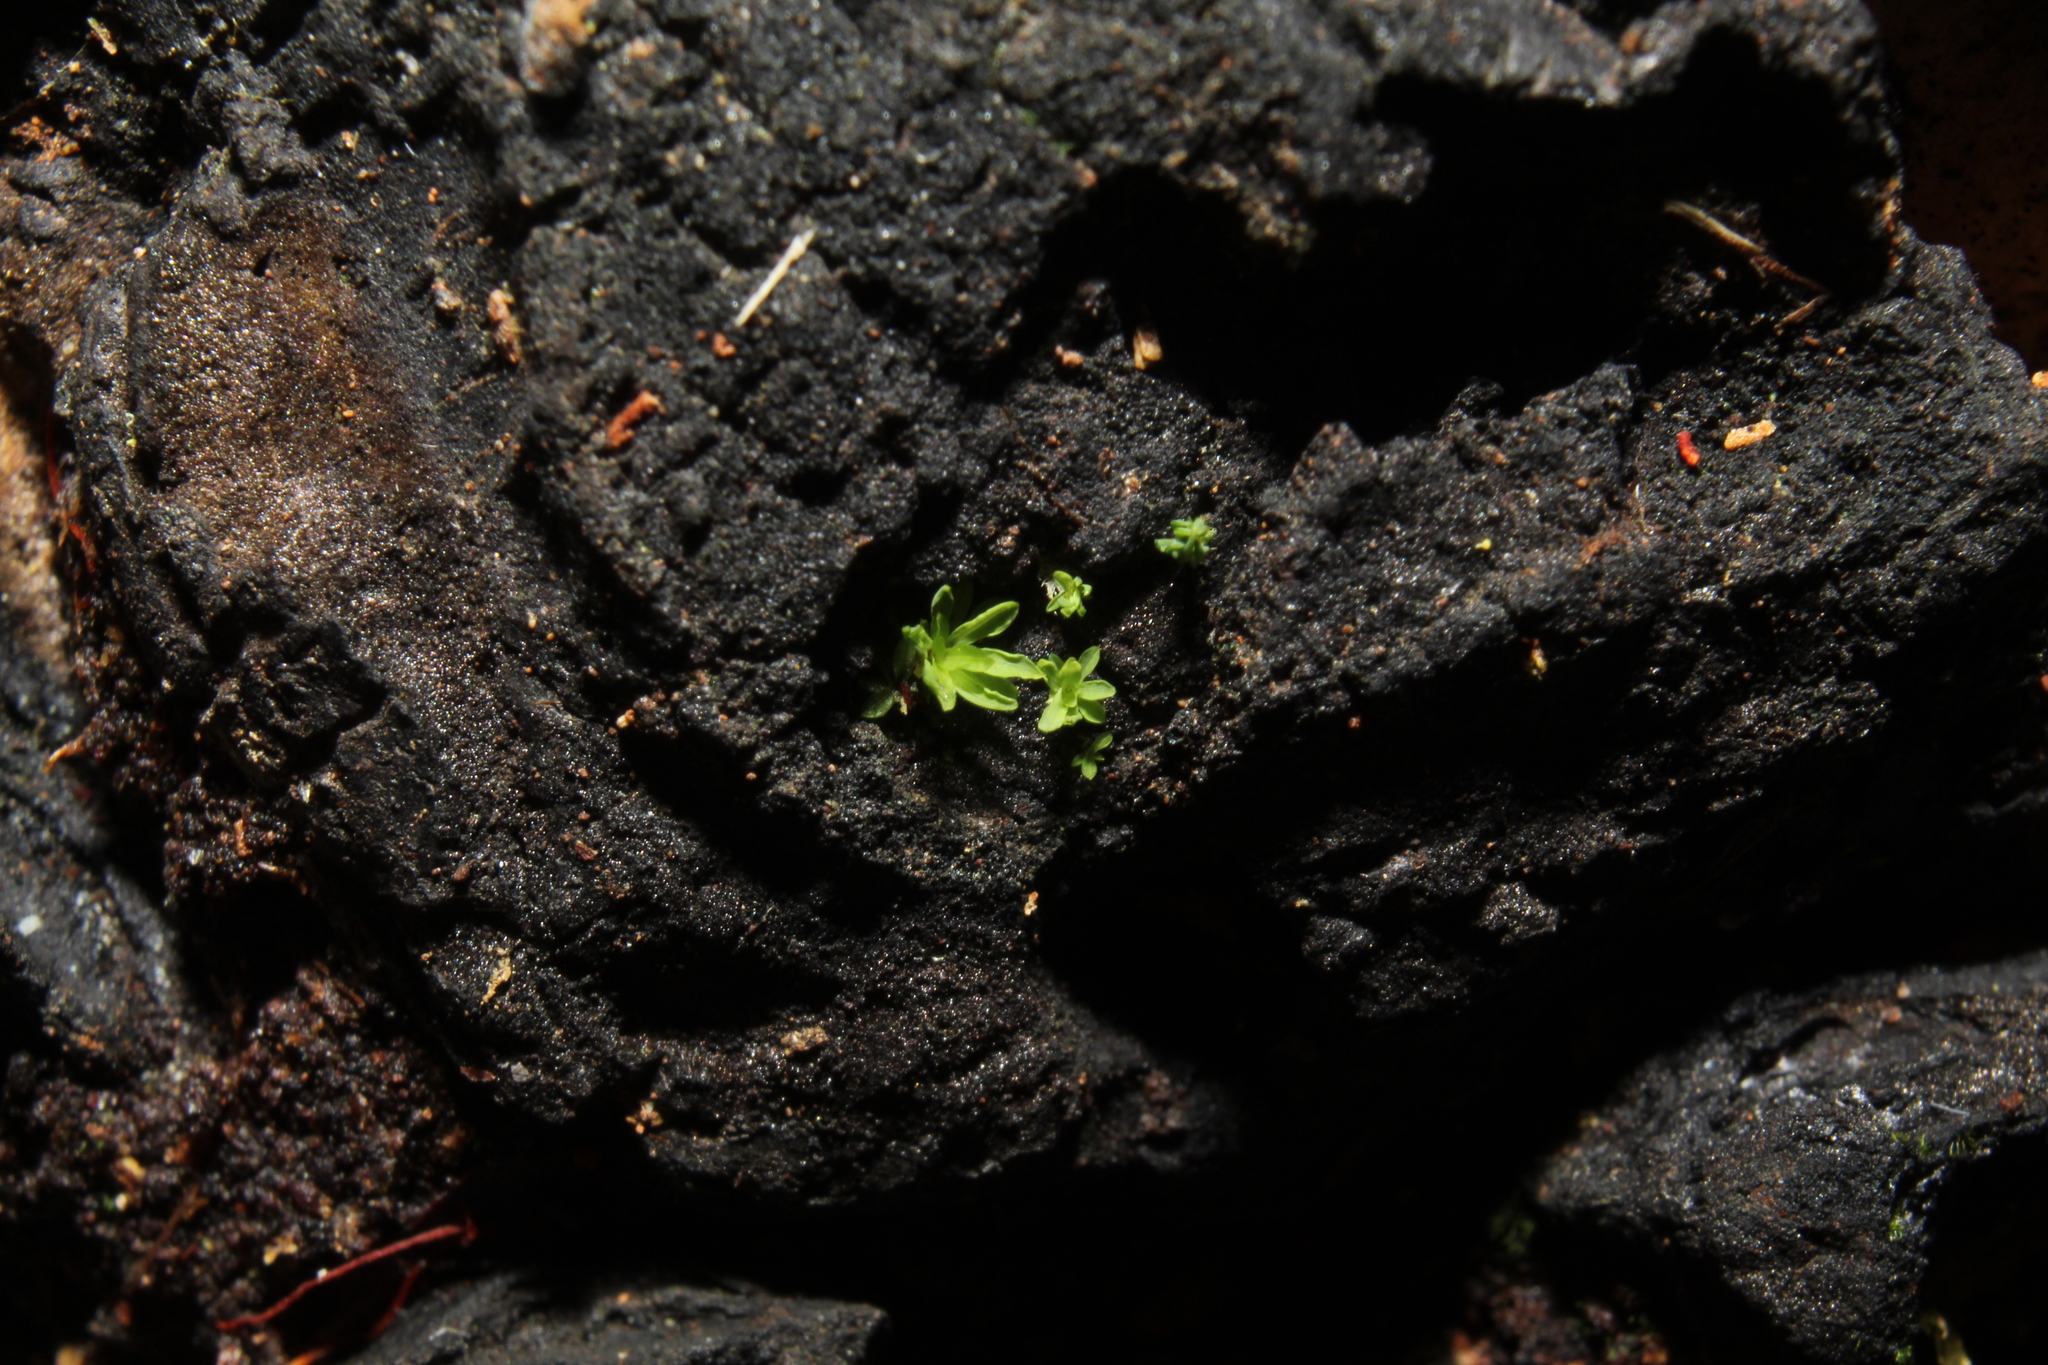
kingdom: Plantae
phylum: Bryophyta
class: Bryopsida
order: Pottiales
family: Pottiaceae
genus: Calymperastrum
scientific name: Calymperastrum latifolium
